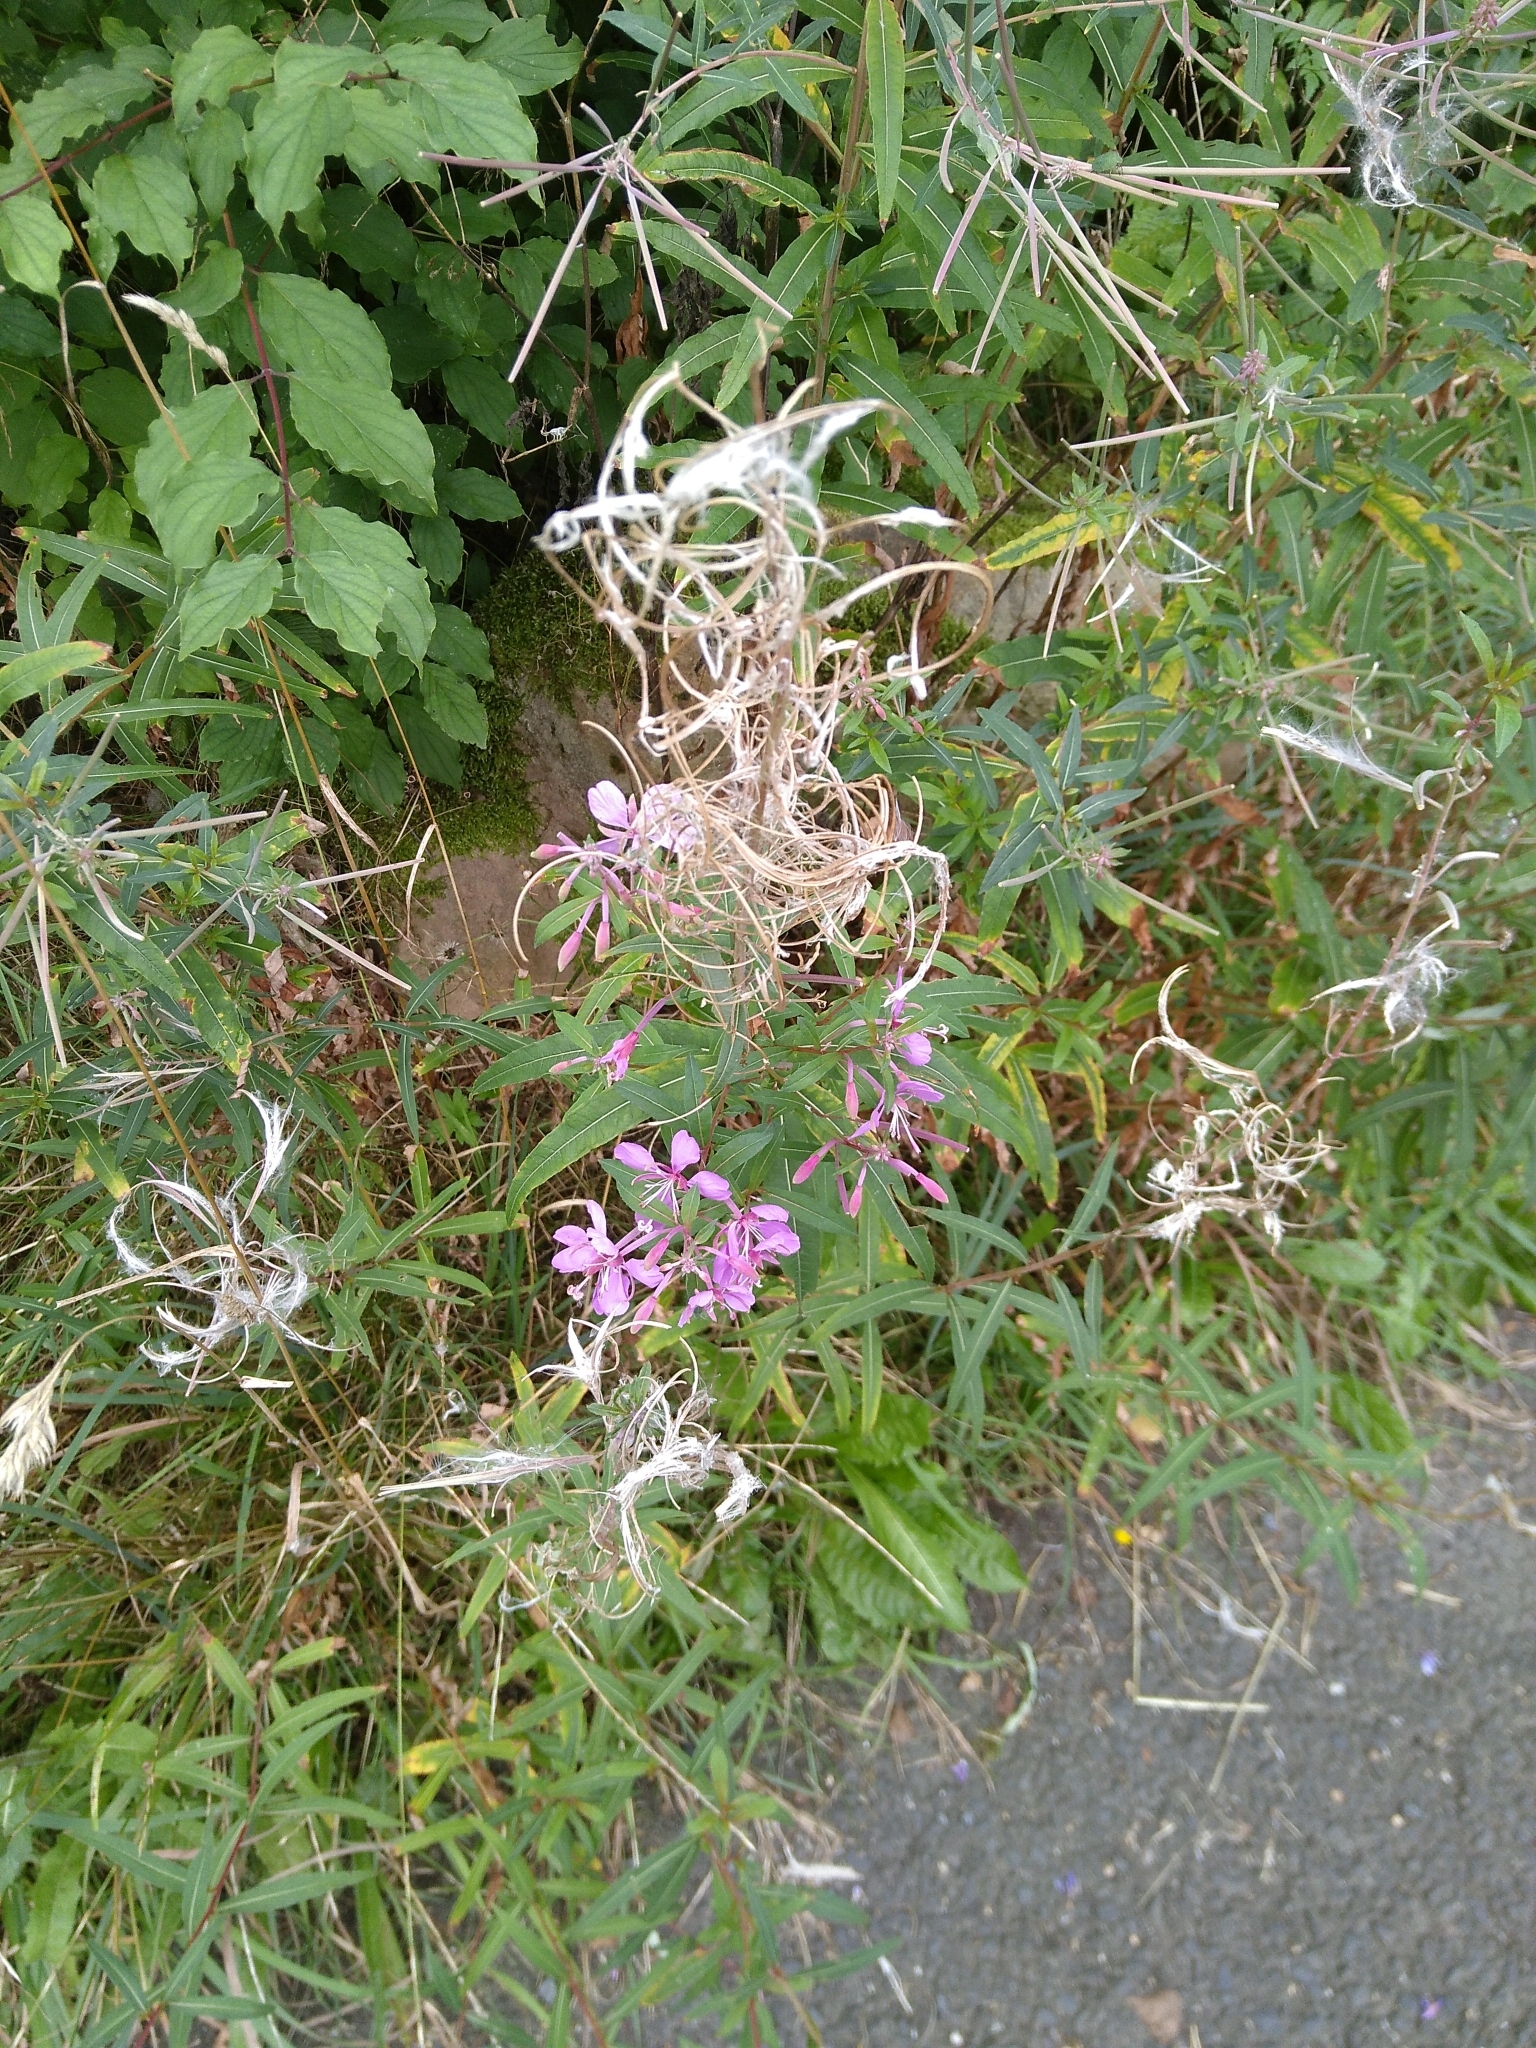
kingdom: Plantae
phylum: Tracheophyta
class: Magnoliopsida
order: Myrtales
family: Onagraceae
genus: Chamaenerion
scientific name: Chamaenerion angustifolium
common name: Fireweed
